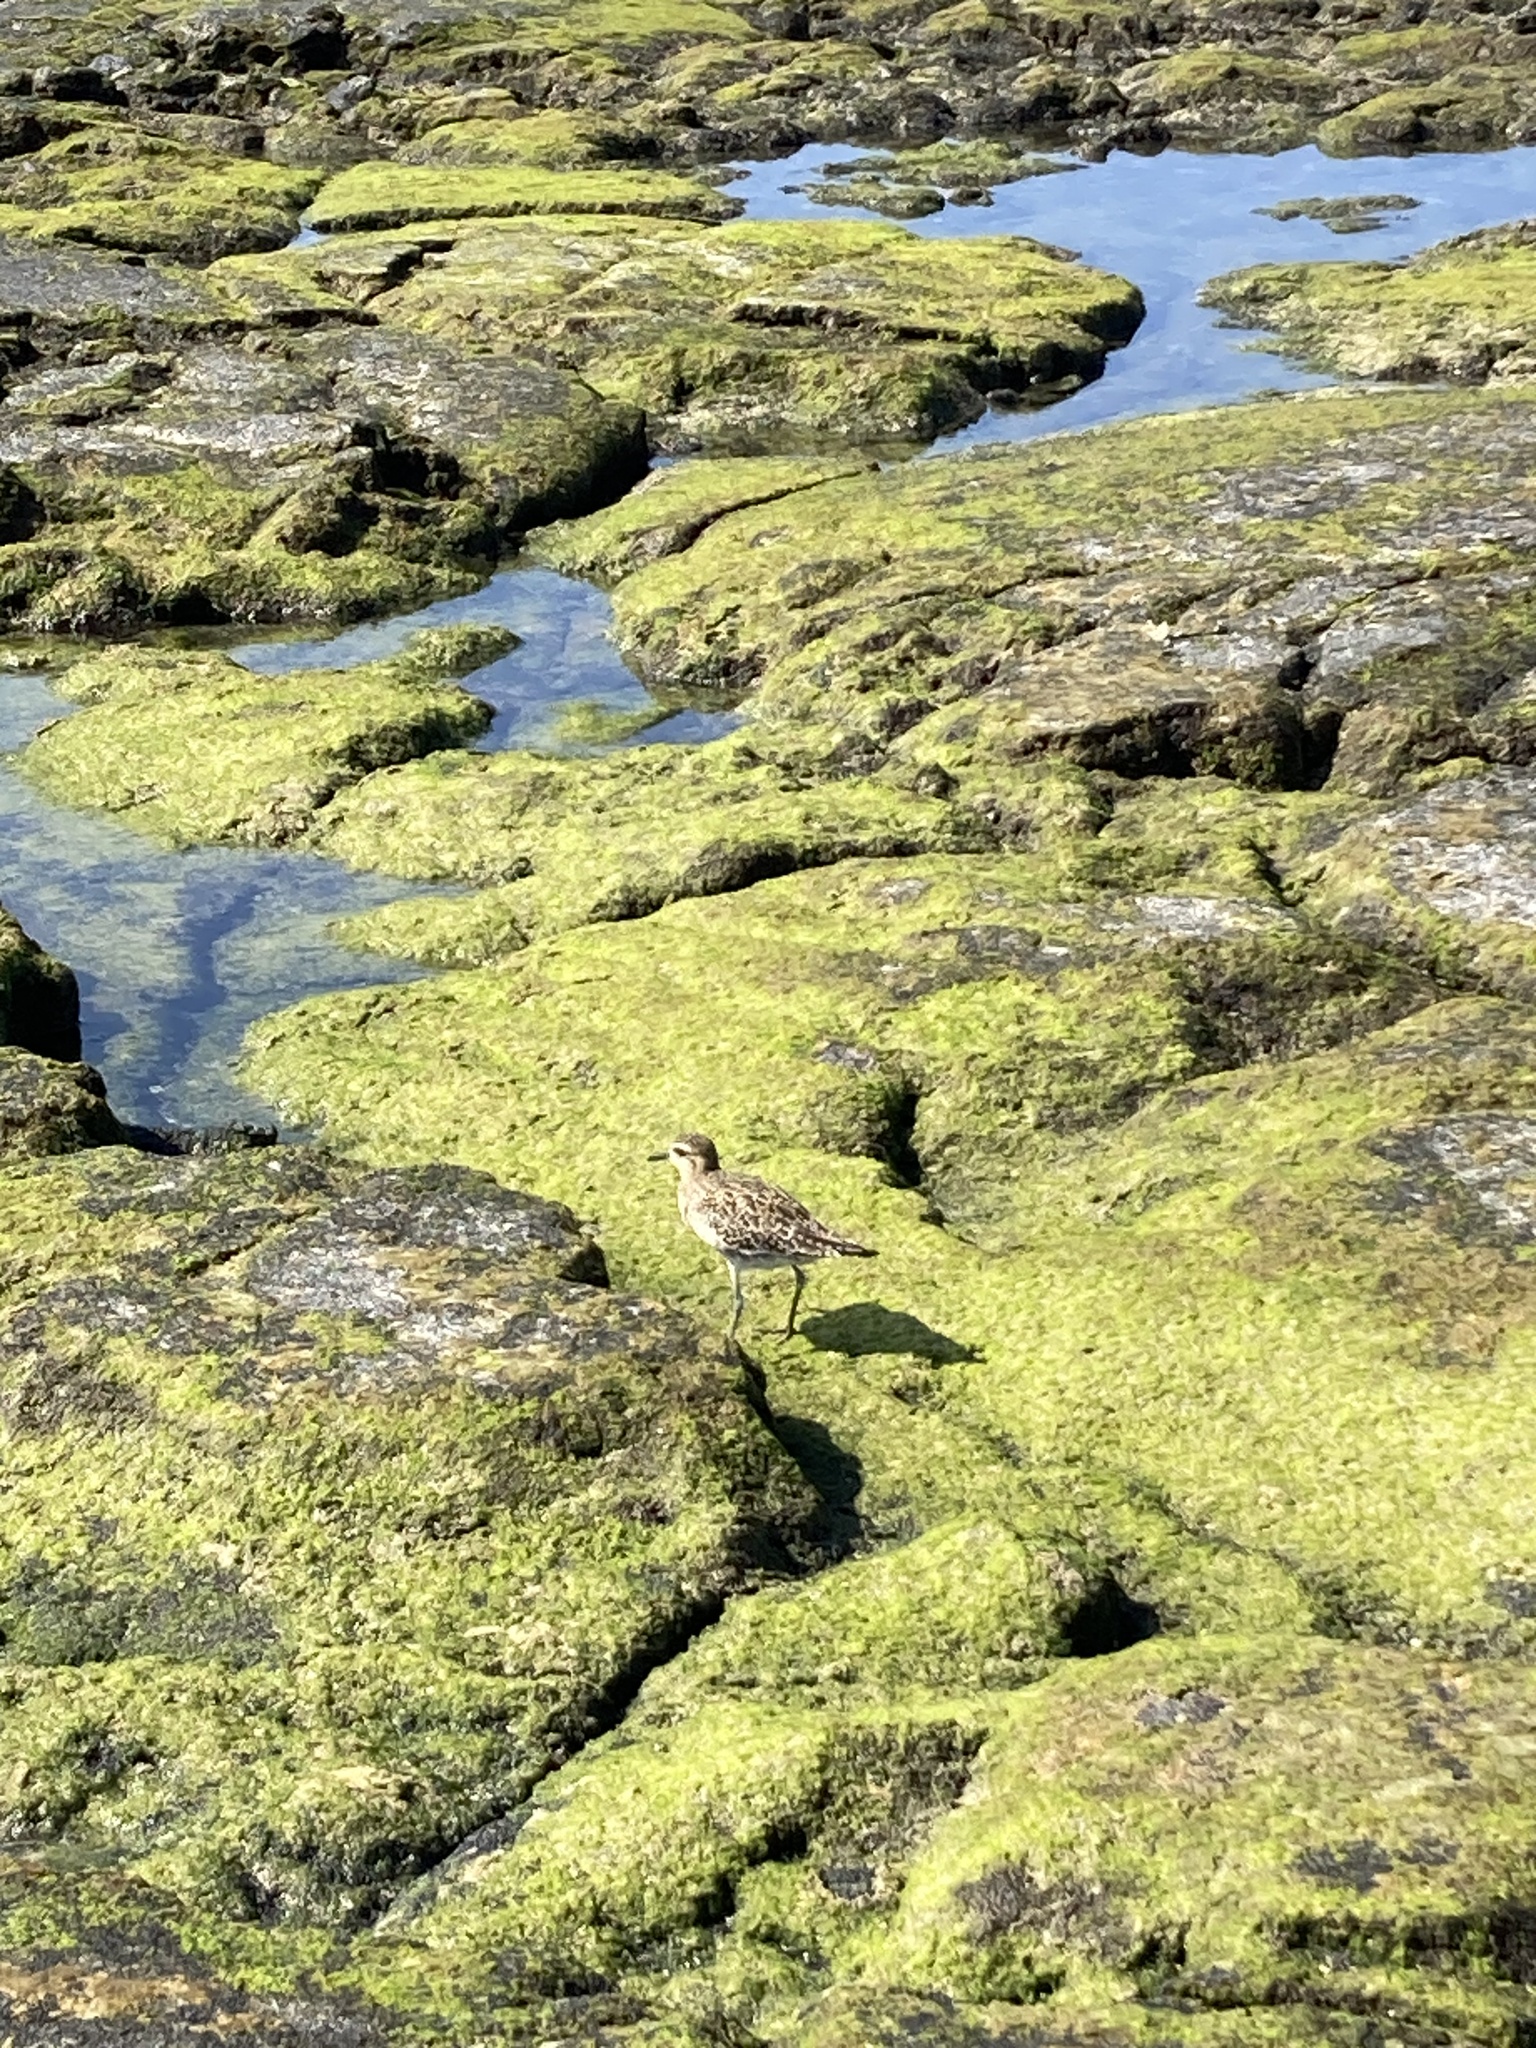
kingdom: Animalia
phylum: Chordata
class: Aves
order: Charadriiformes
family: Charadriidae
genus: Pluvialis
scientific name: Pluvialis fulva
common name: Pacific golden plover
